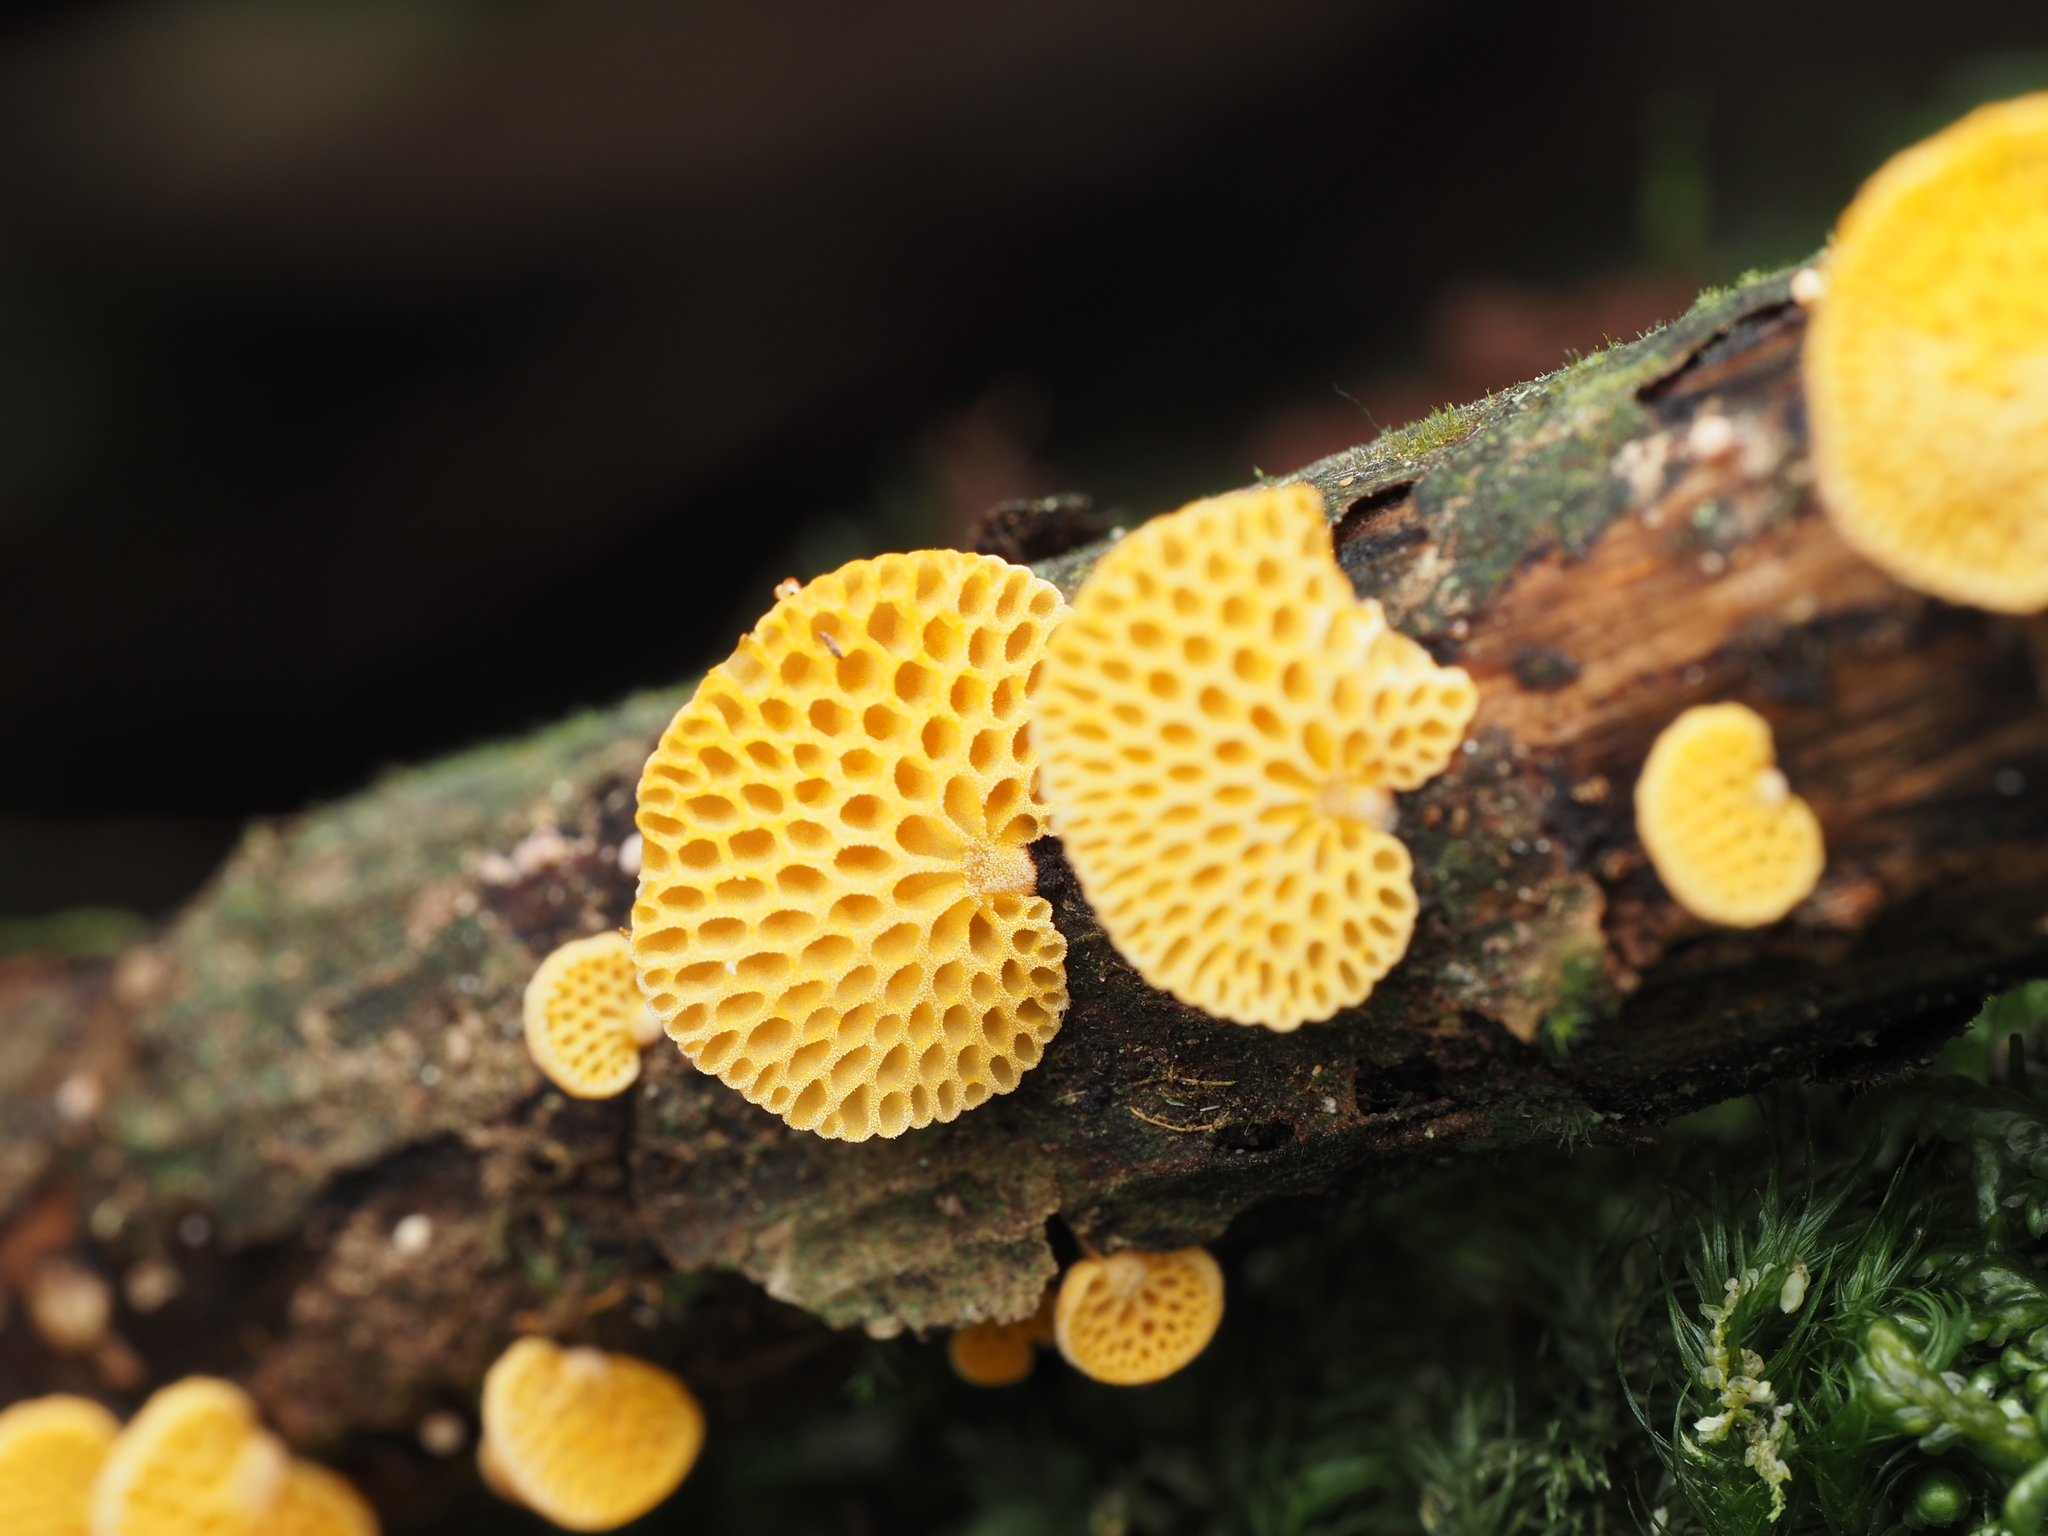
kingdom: Fungi
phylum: Basidiomycota
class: Agaricomycetes
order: Agaricales
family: Mycenaceae
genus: Favolaschia
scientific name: Favolaschia claudopus
